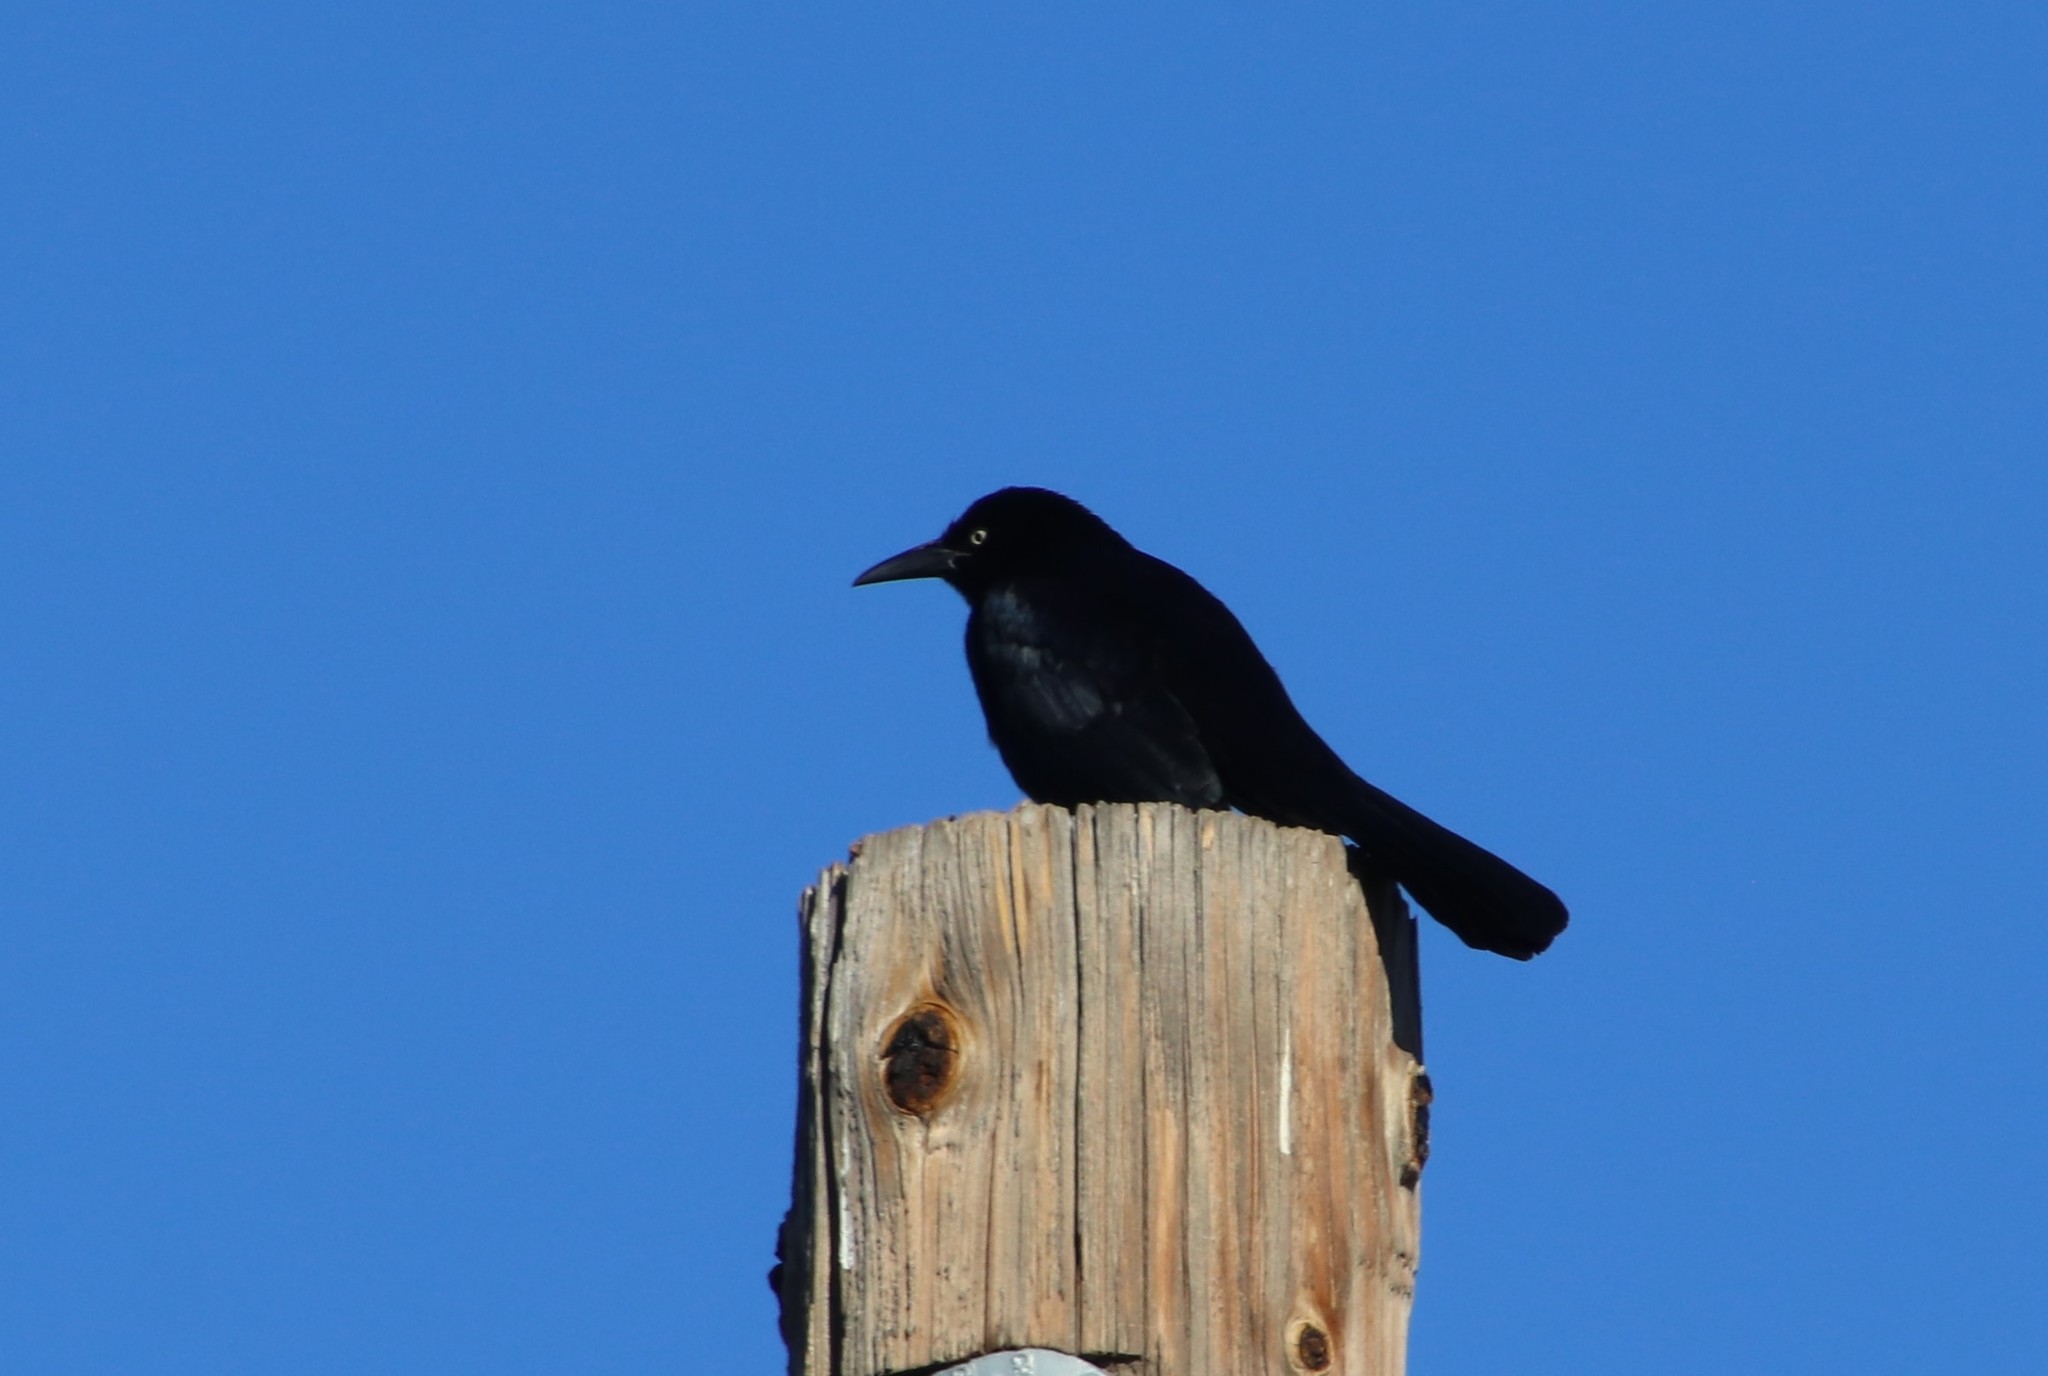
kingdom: Animalia
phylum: Chordata
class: Aves
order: Passeriformes
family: Icteridae
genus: Euphagus
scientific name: Euphagus cyanocephalus
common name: Brewer's blackbird
